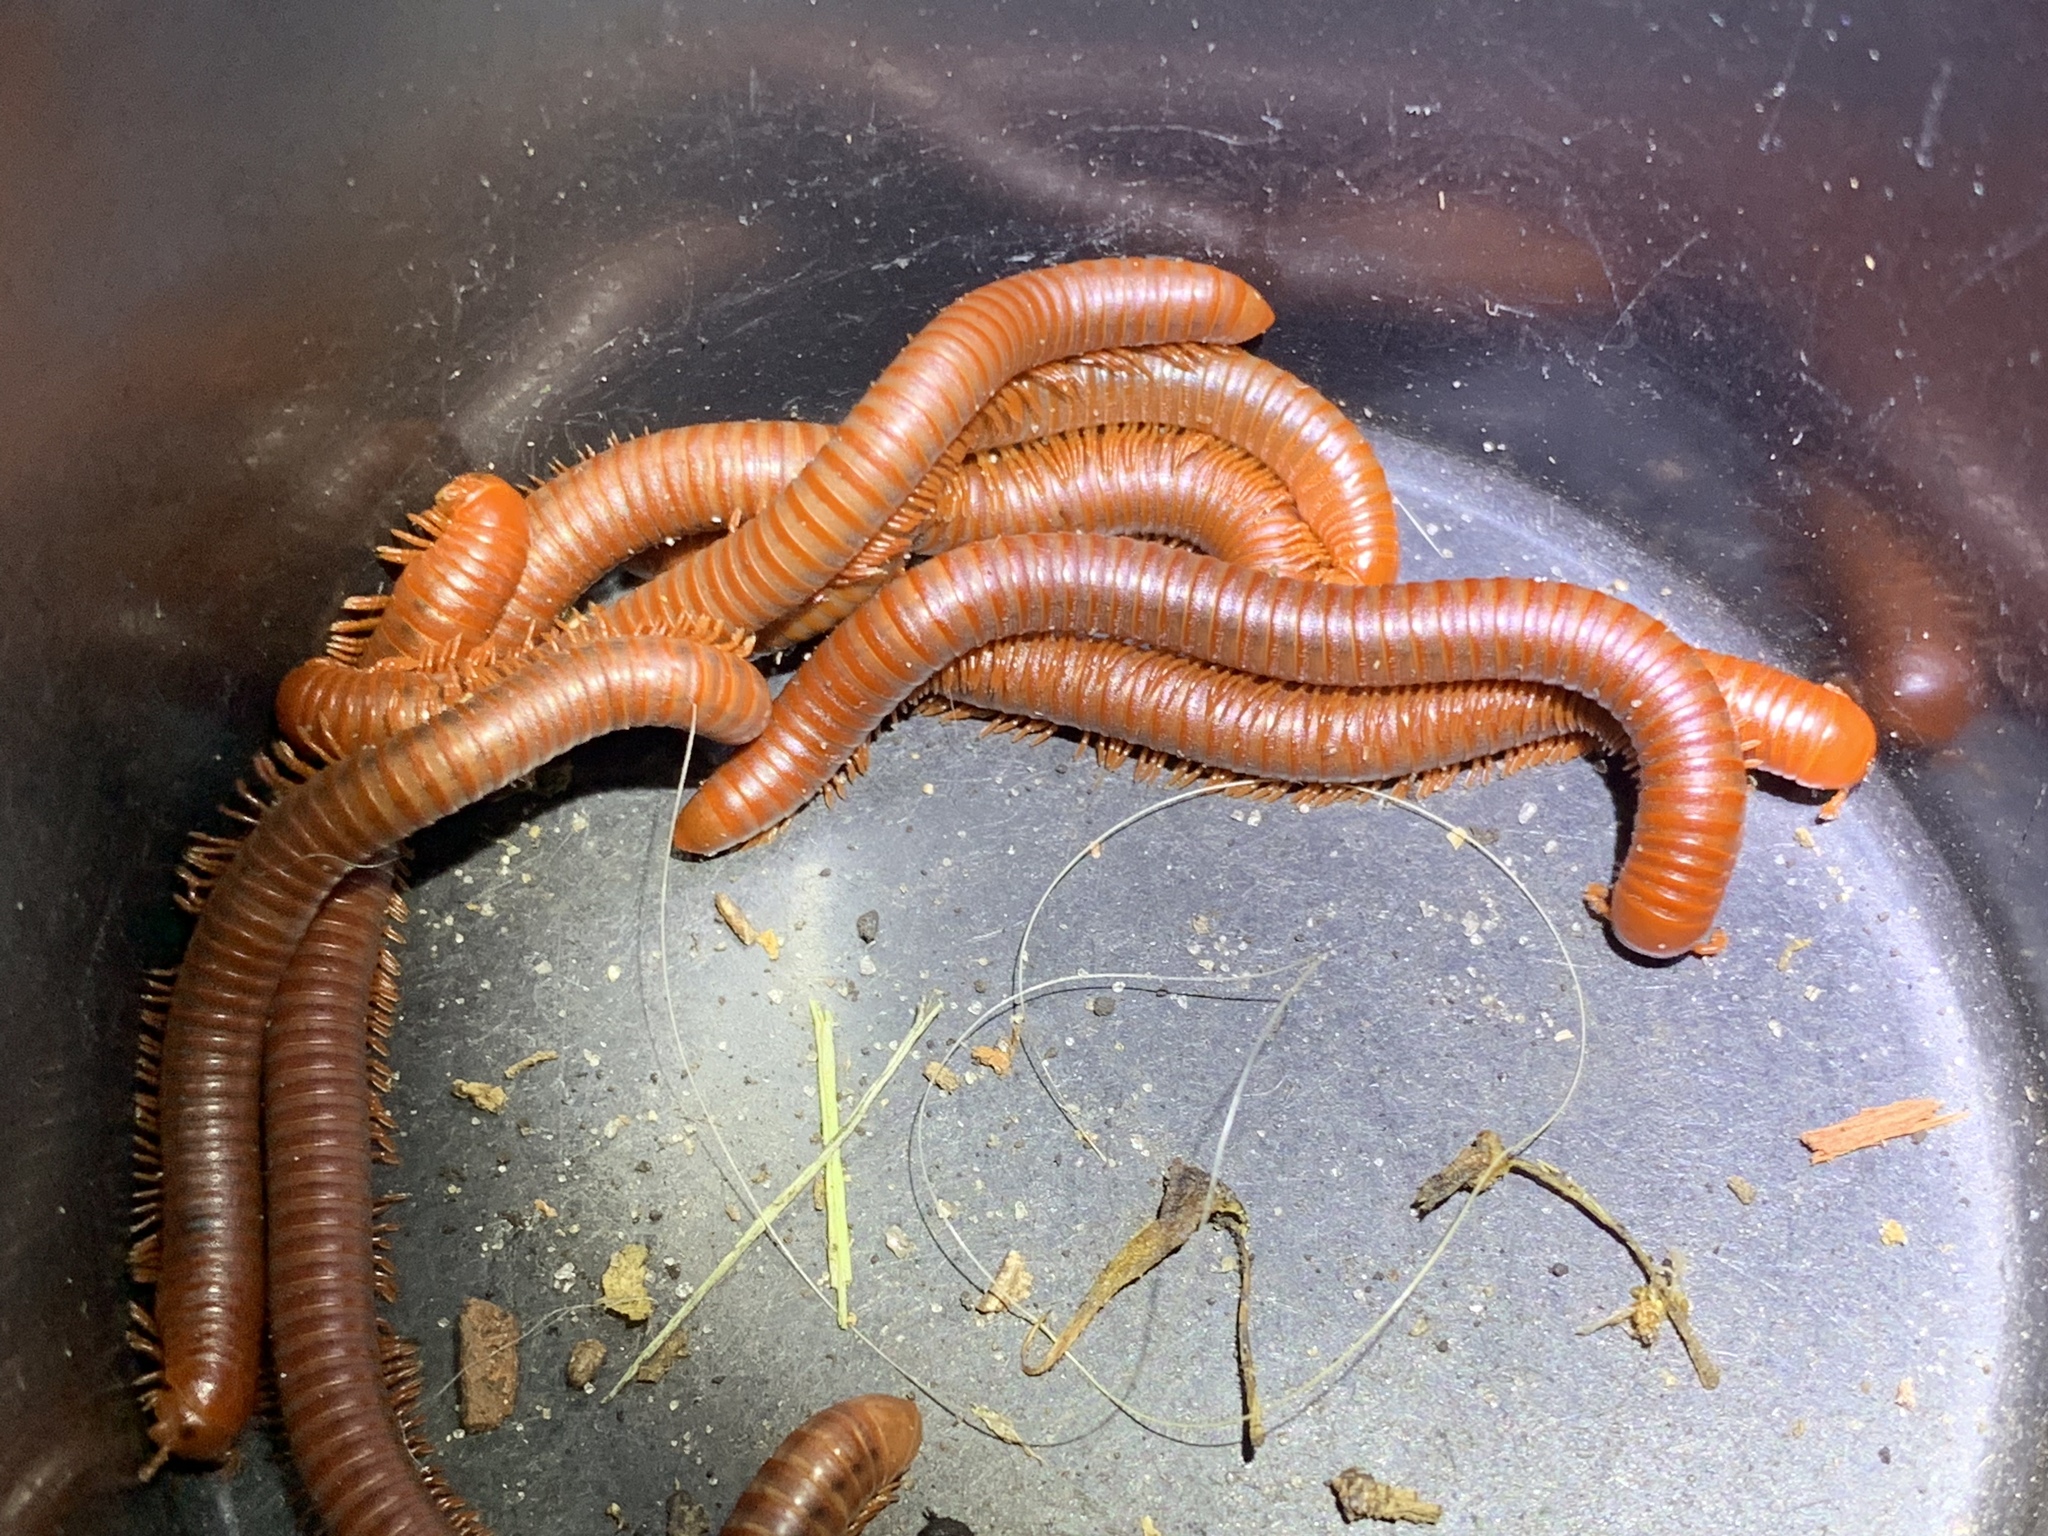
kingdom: Animalia
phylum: Arthropoda
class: Diplopoda
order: Spirobolida
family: Pachybolidae
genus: Trigoniulus
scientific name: Trigoniulus corallinus
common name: Millipede
